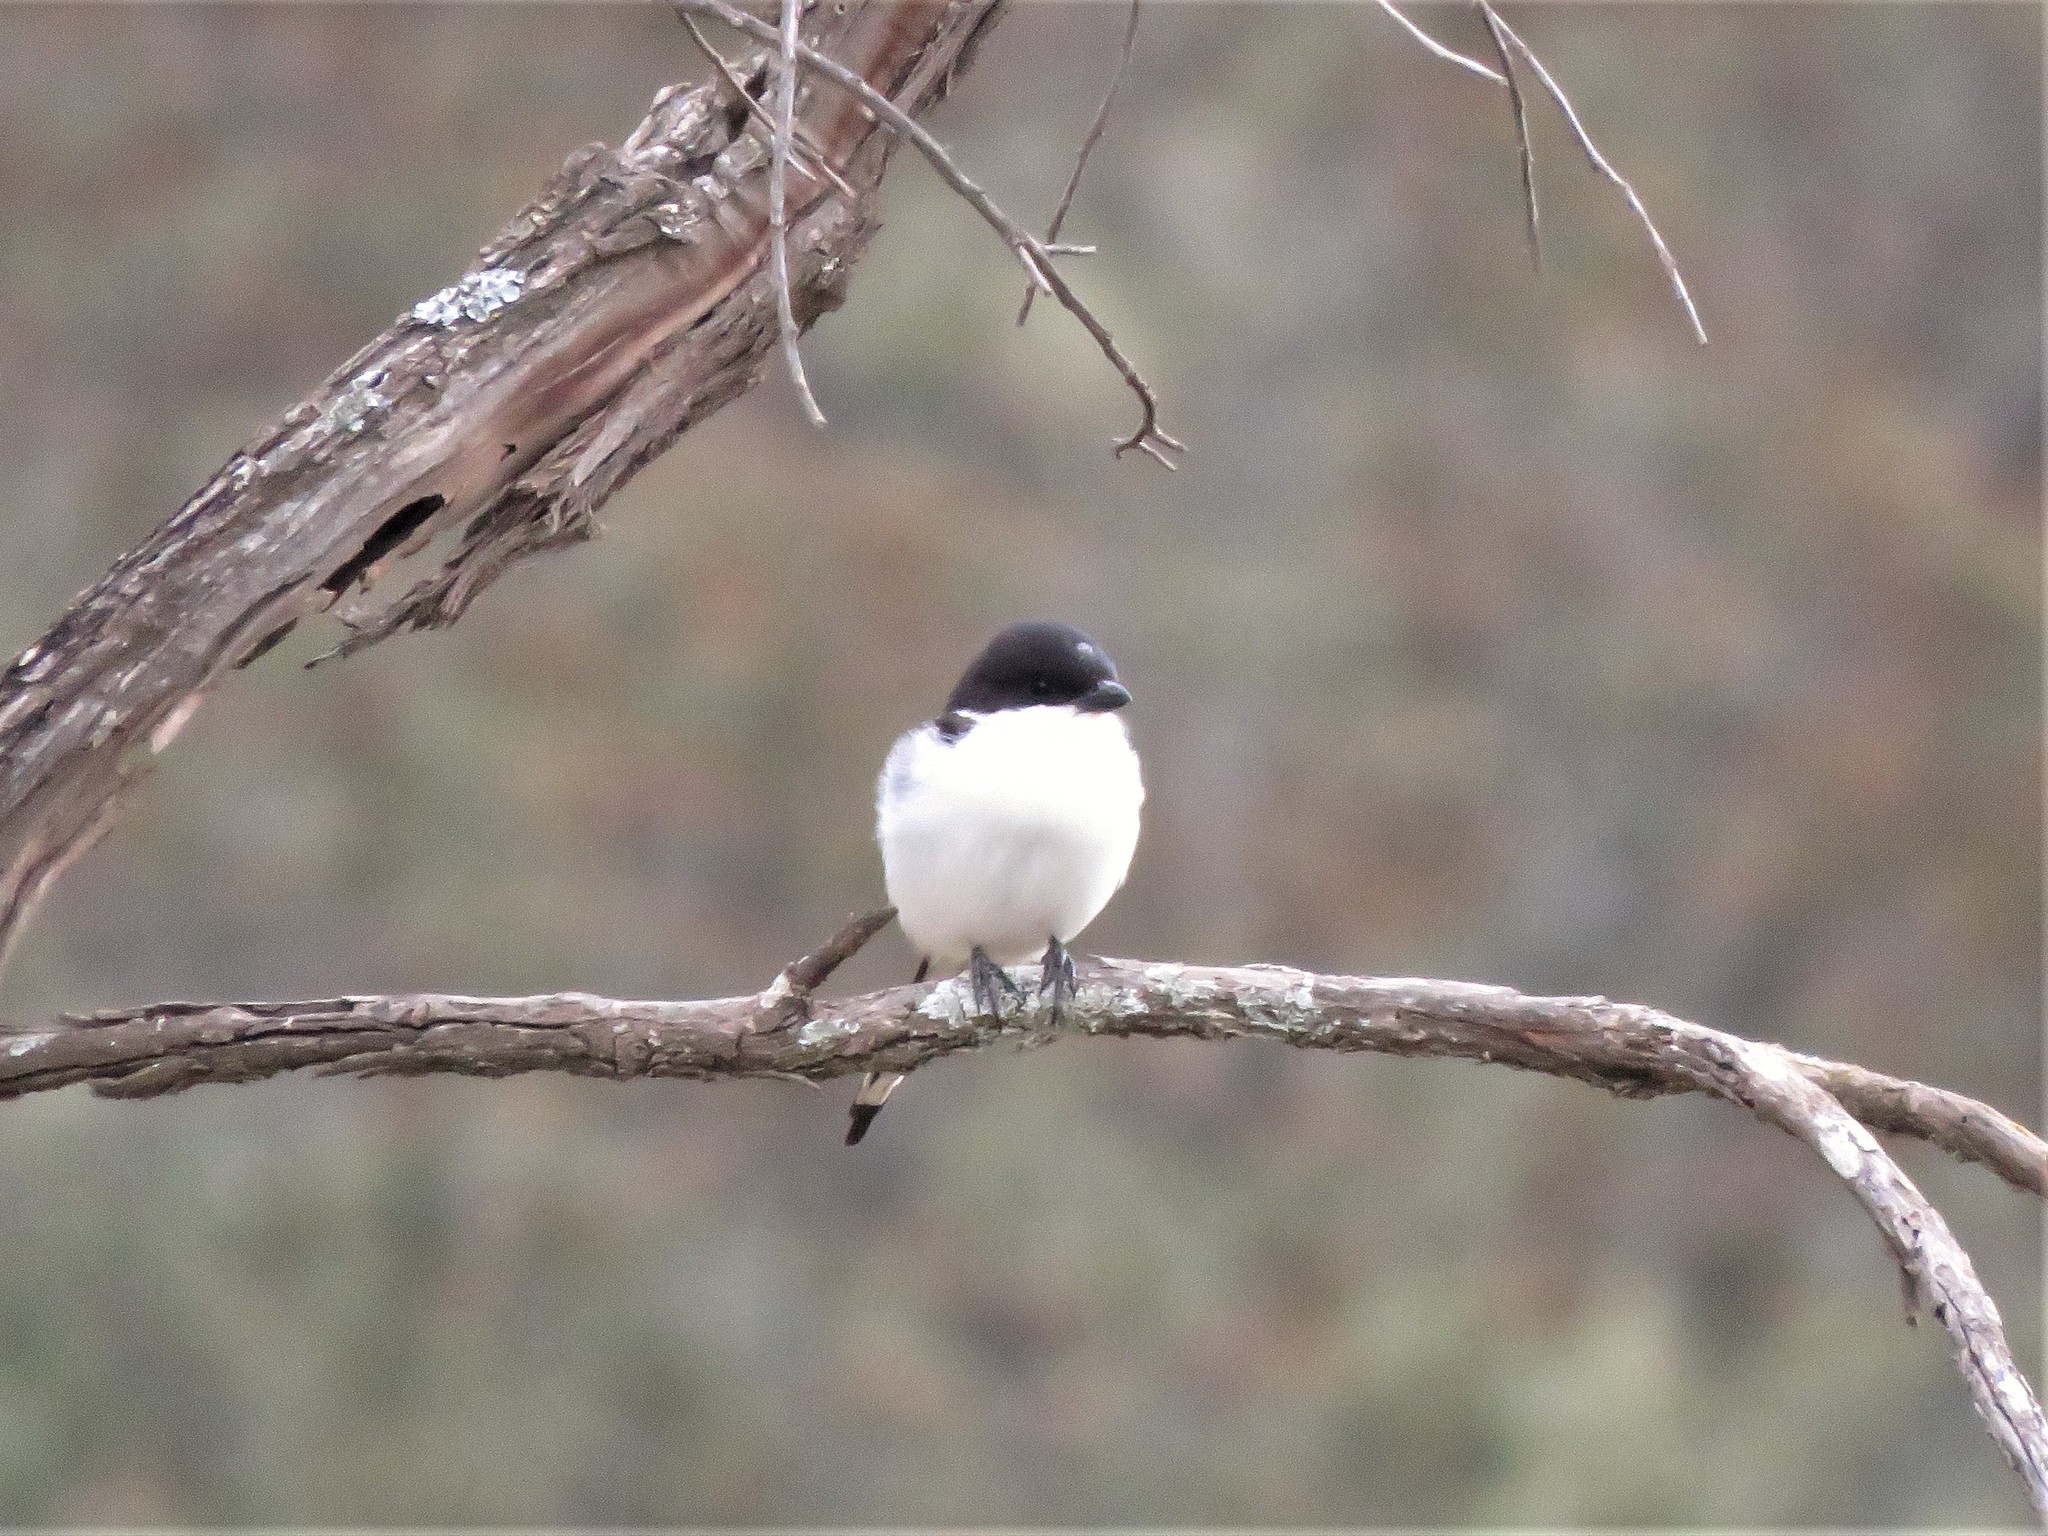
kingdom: Animalia
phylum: Chordata
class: Aves
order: Passeriformes
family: Laniidae
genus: Lanius
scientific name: Lanius humeralis
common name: Northern fiscal
